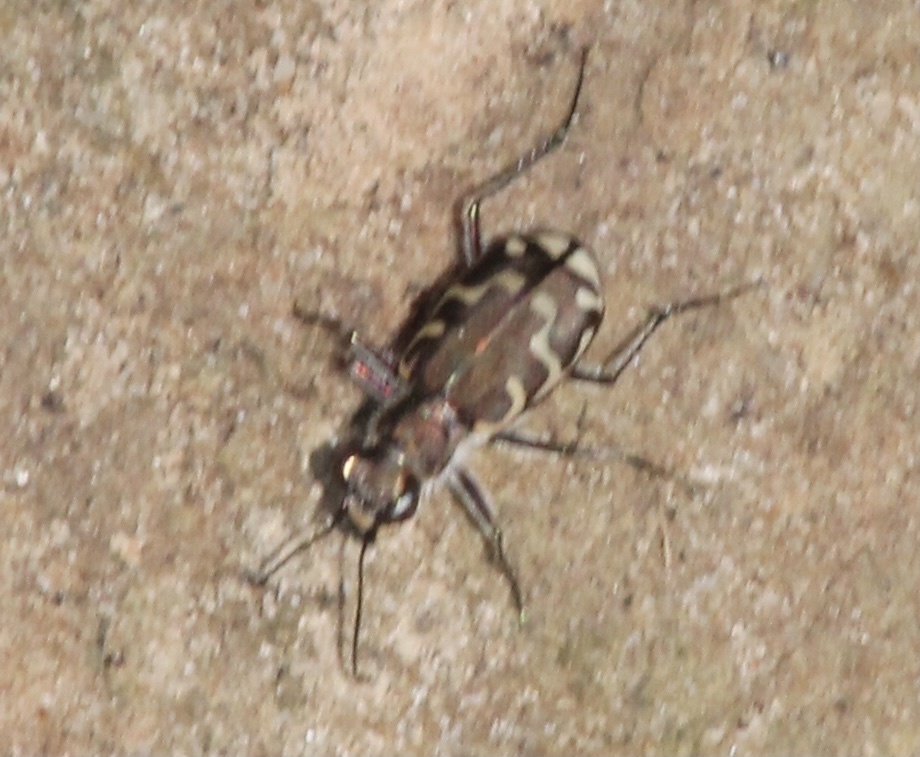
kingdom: Animalia
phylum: Arthropoda
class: Insecta
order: Coleoptera
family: Carabidae
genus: Cicindela
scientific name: Cicindela repanda
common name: Bronzed tiger beetle
